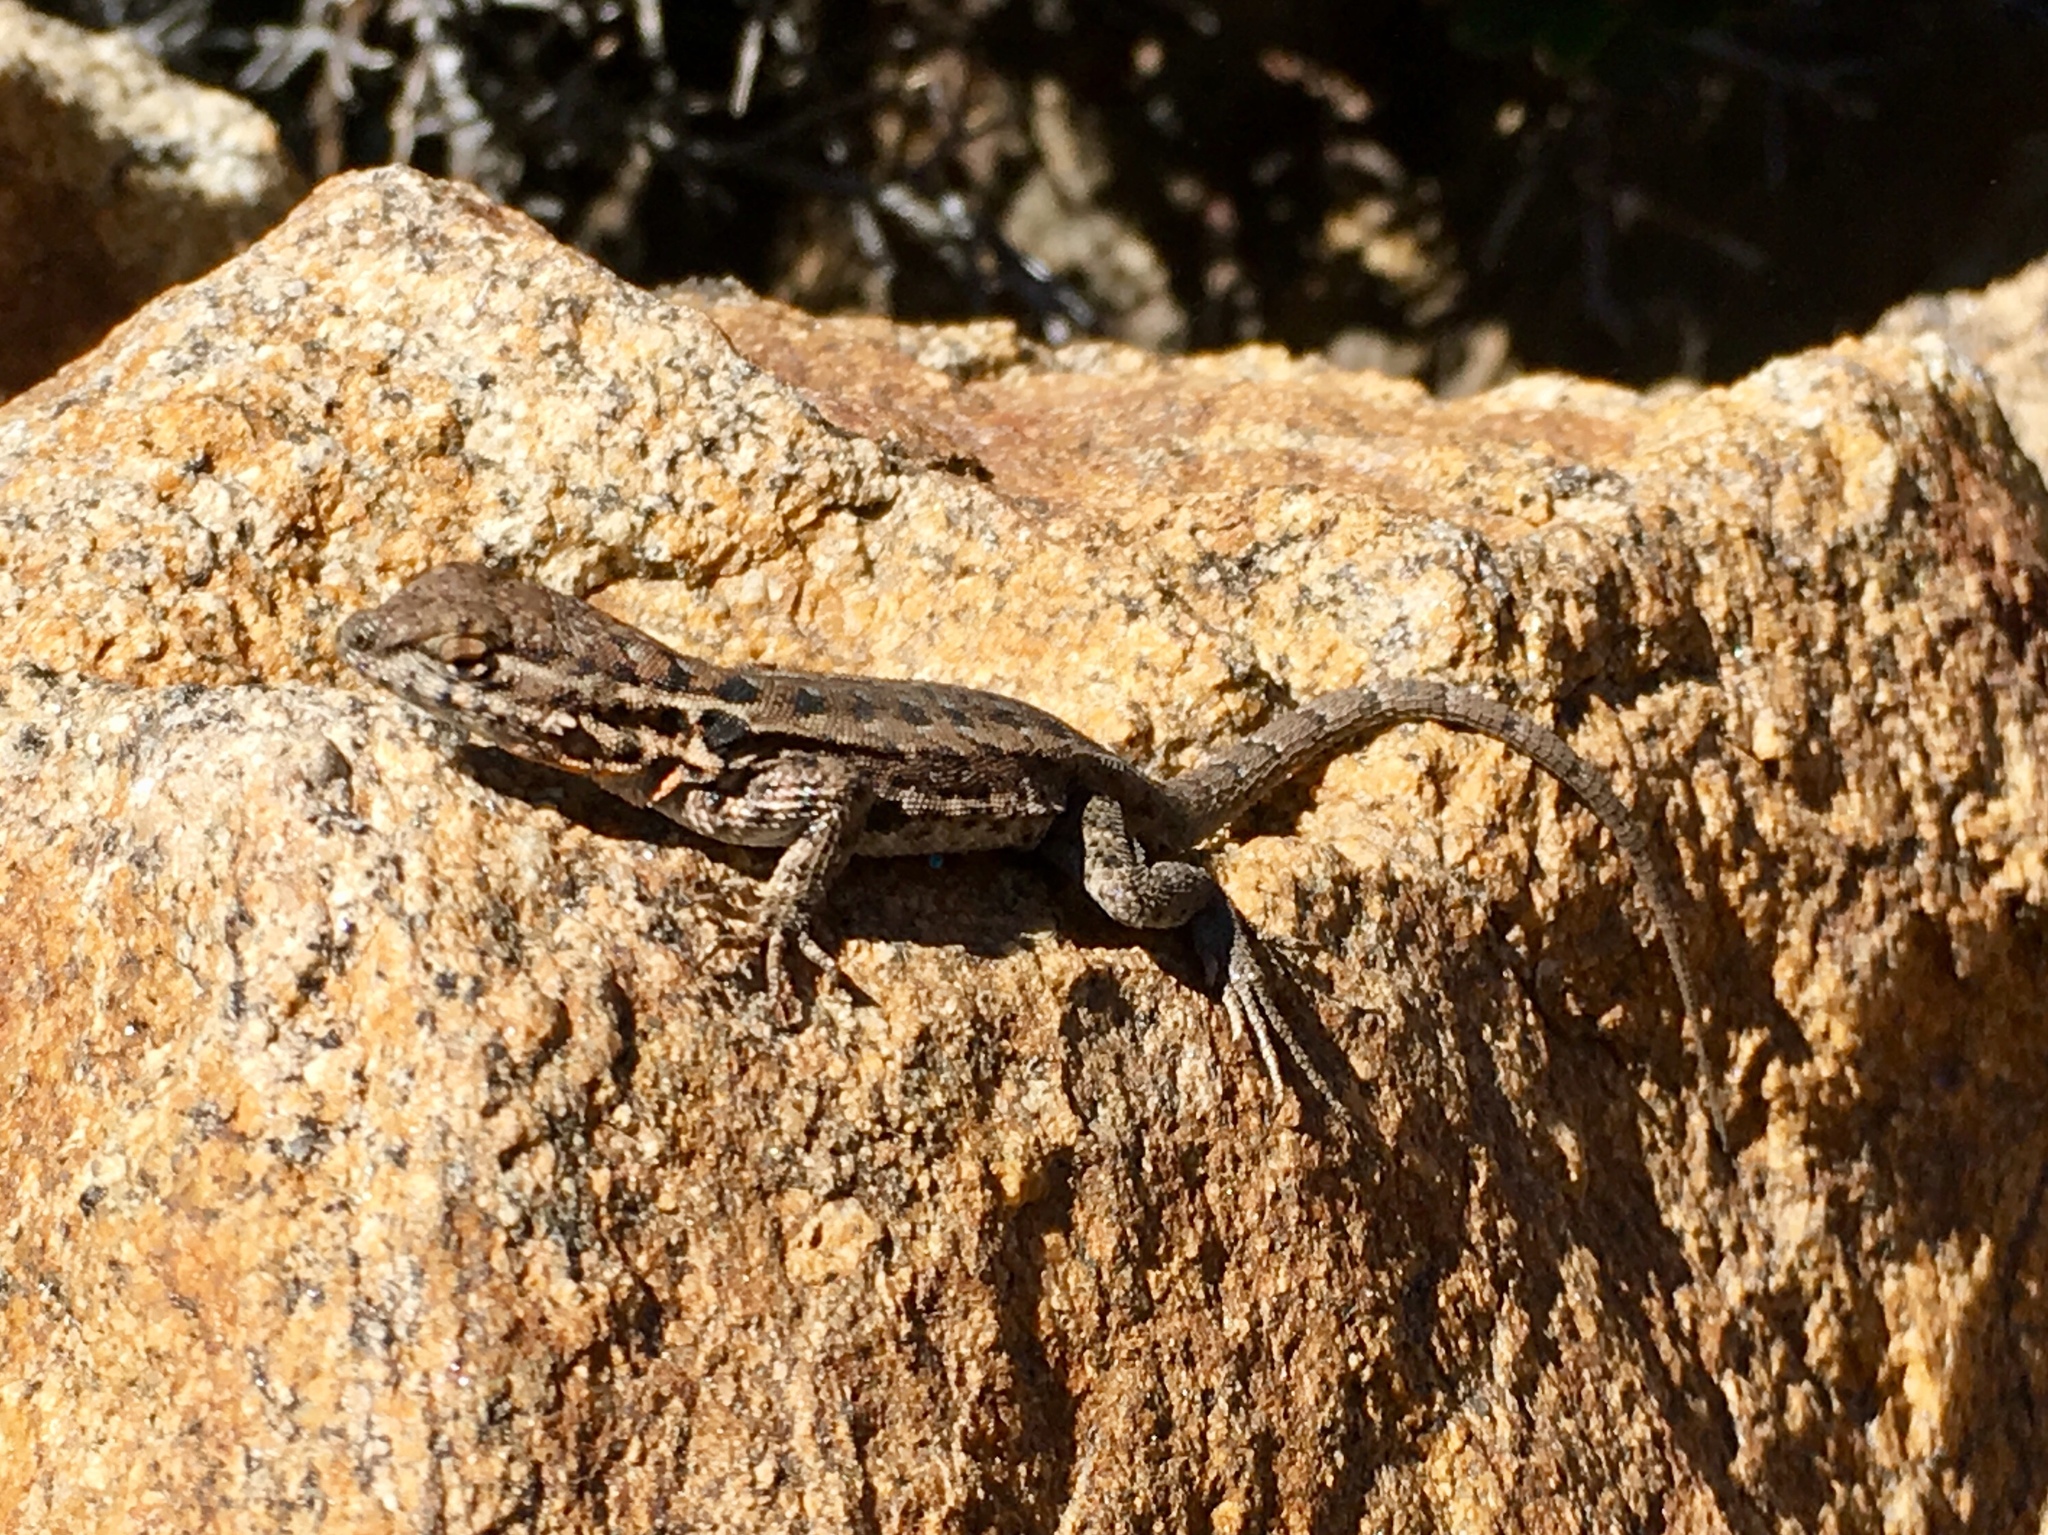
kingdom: Animalia
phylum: Chordata
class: Squamata
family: Phrynosomatidae
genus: Uta
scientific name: Uta stansburiana
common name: Side-blotched lizard
